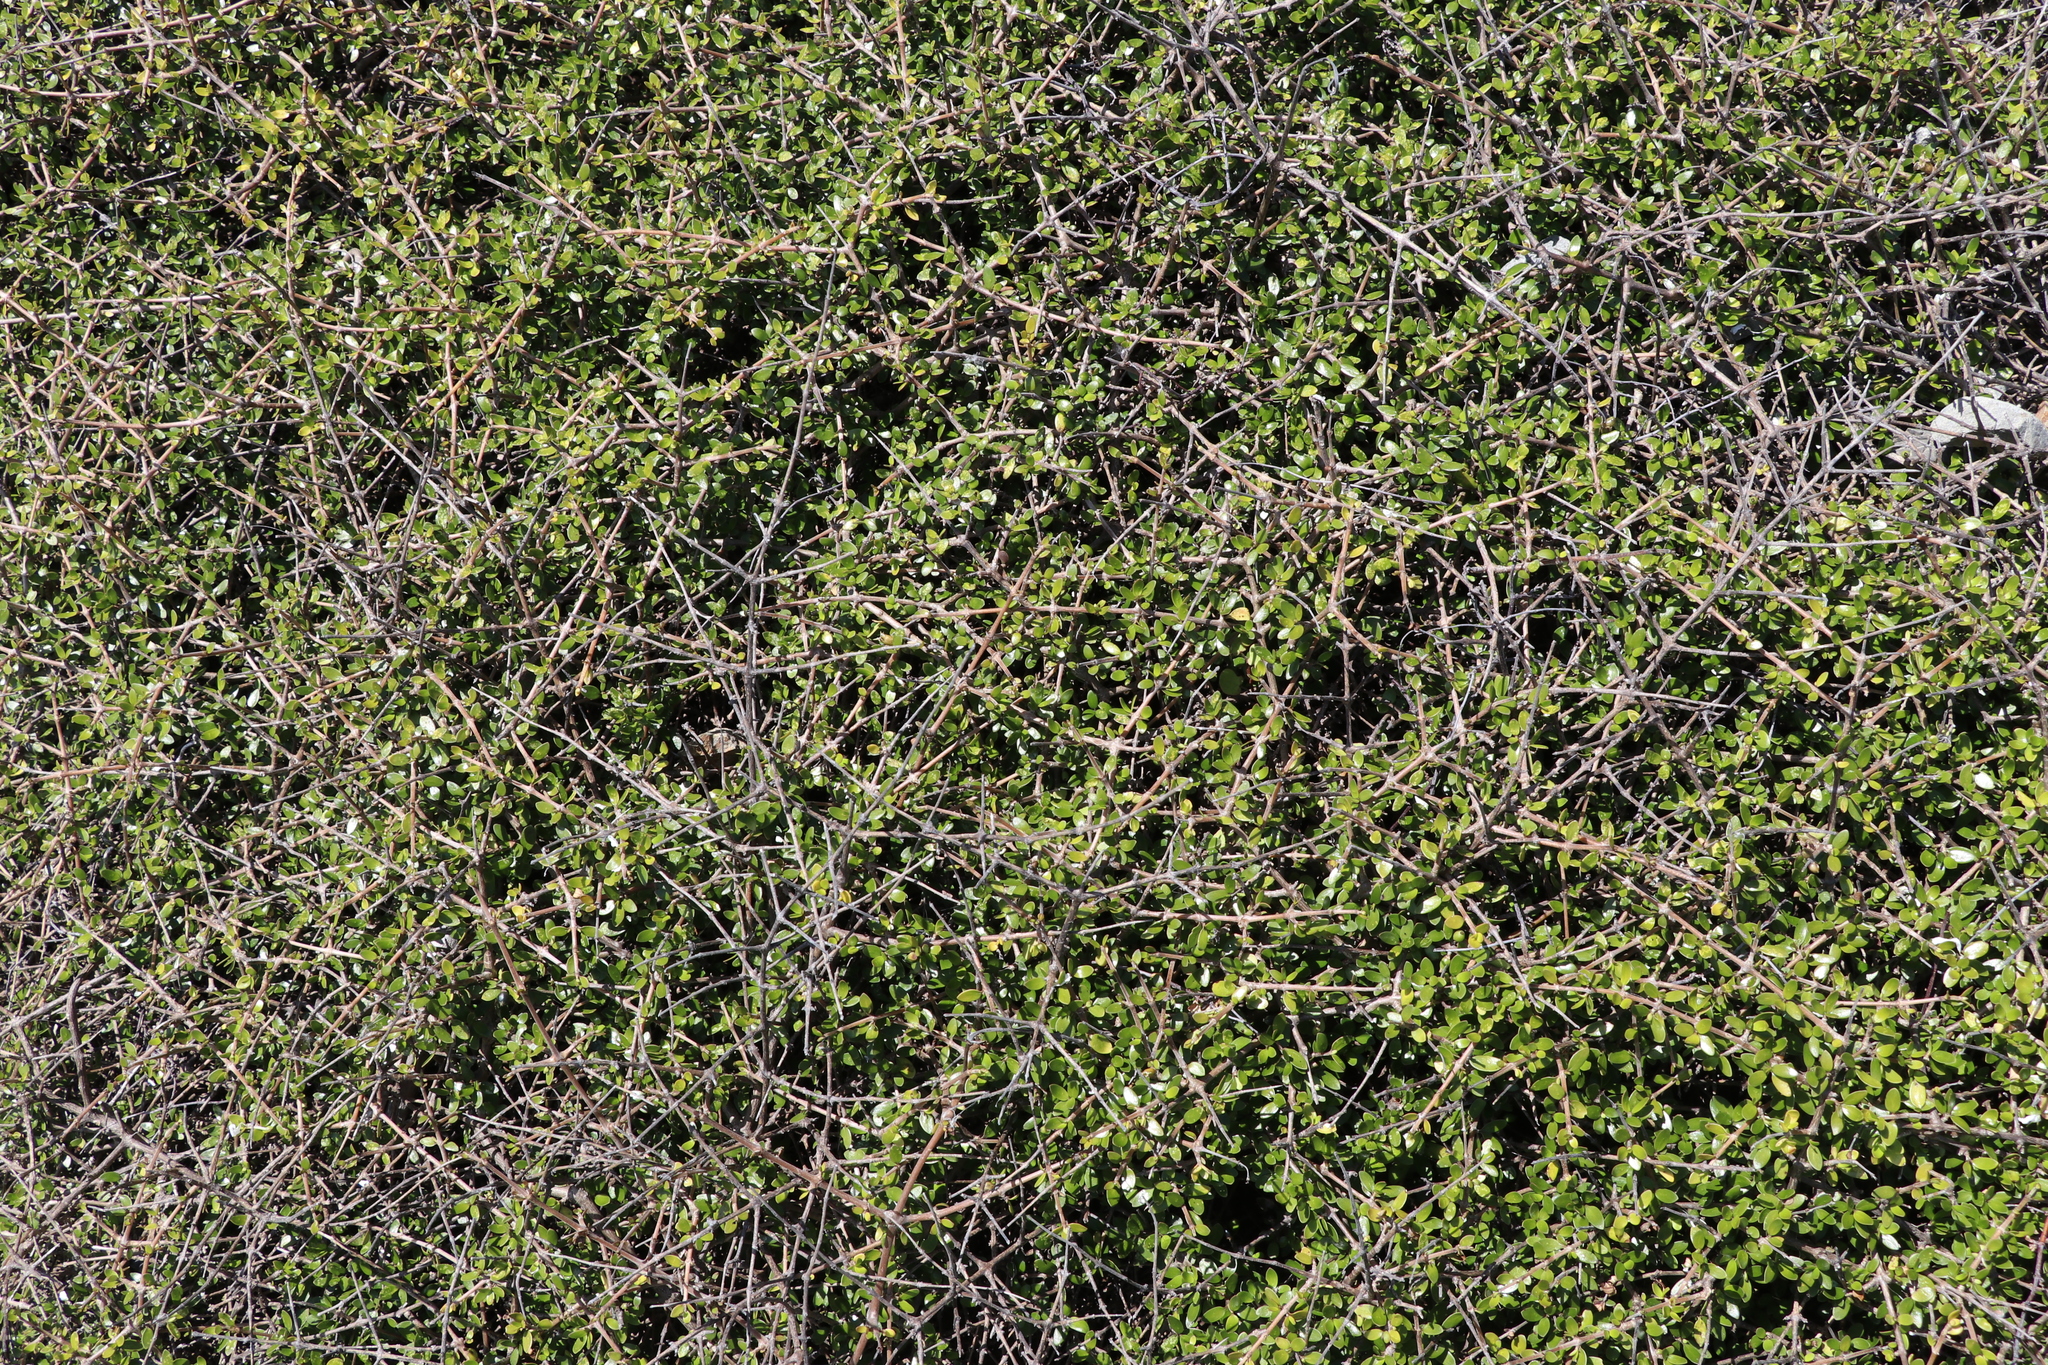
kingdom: Plantae
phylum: Tracheophyta
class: Magnoliopsida
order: Gentianales
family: Rubiaceae
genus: Coprosma
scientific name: Coprosma propinqua
